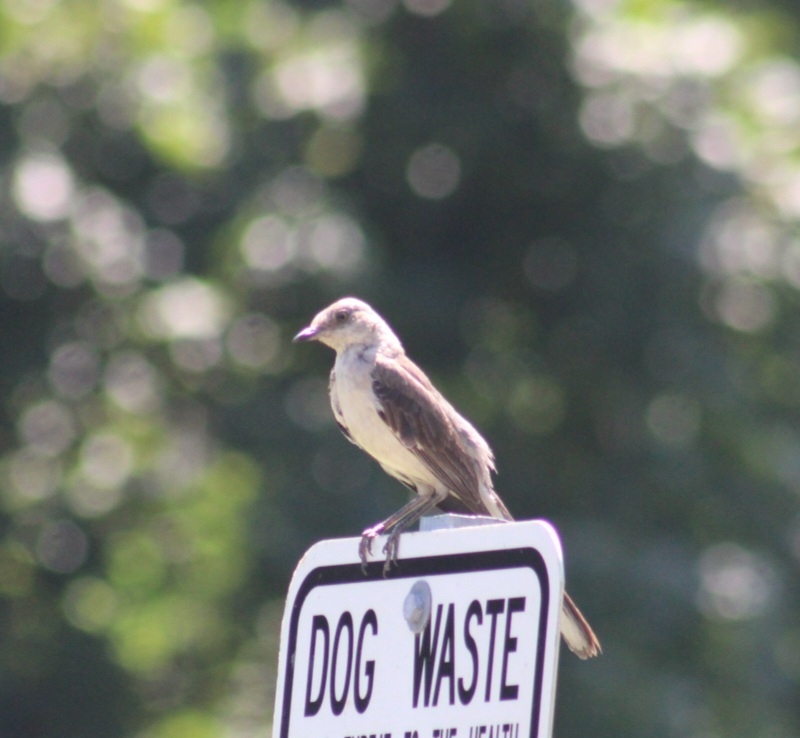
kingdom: Animalia
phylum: Chordata
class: Aves
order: Passeriformes
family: Mimidae
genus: Mimus
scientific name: Mimus polyglottos
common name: Northern mockingbird
